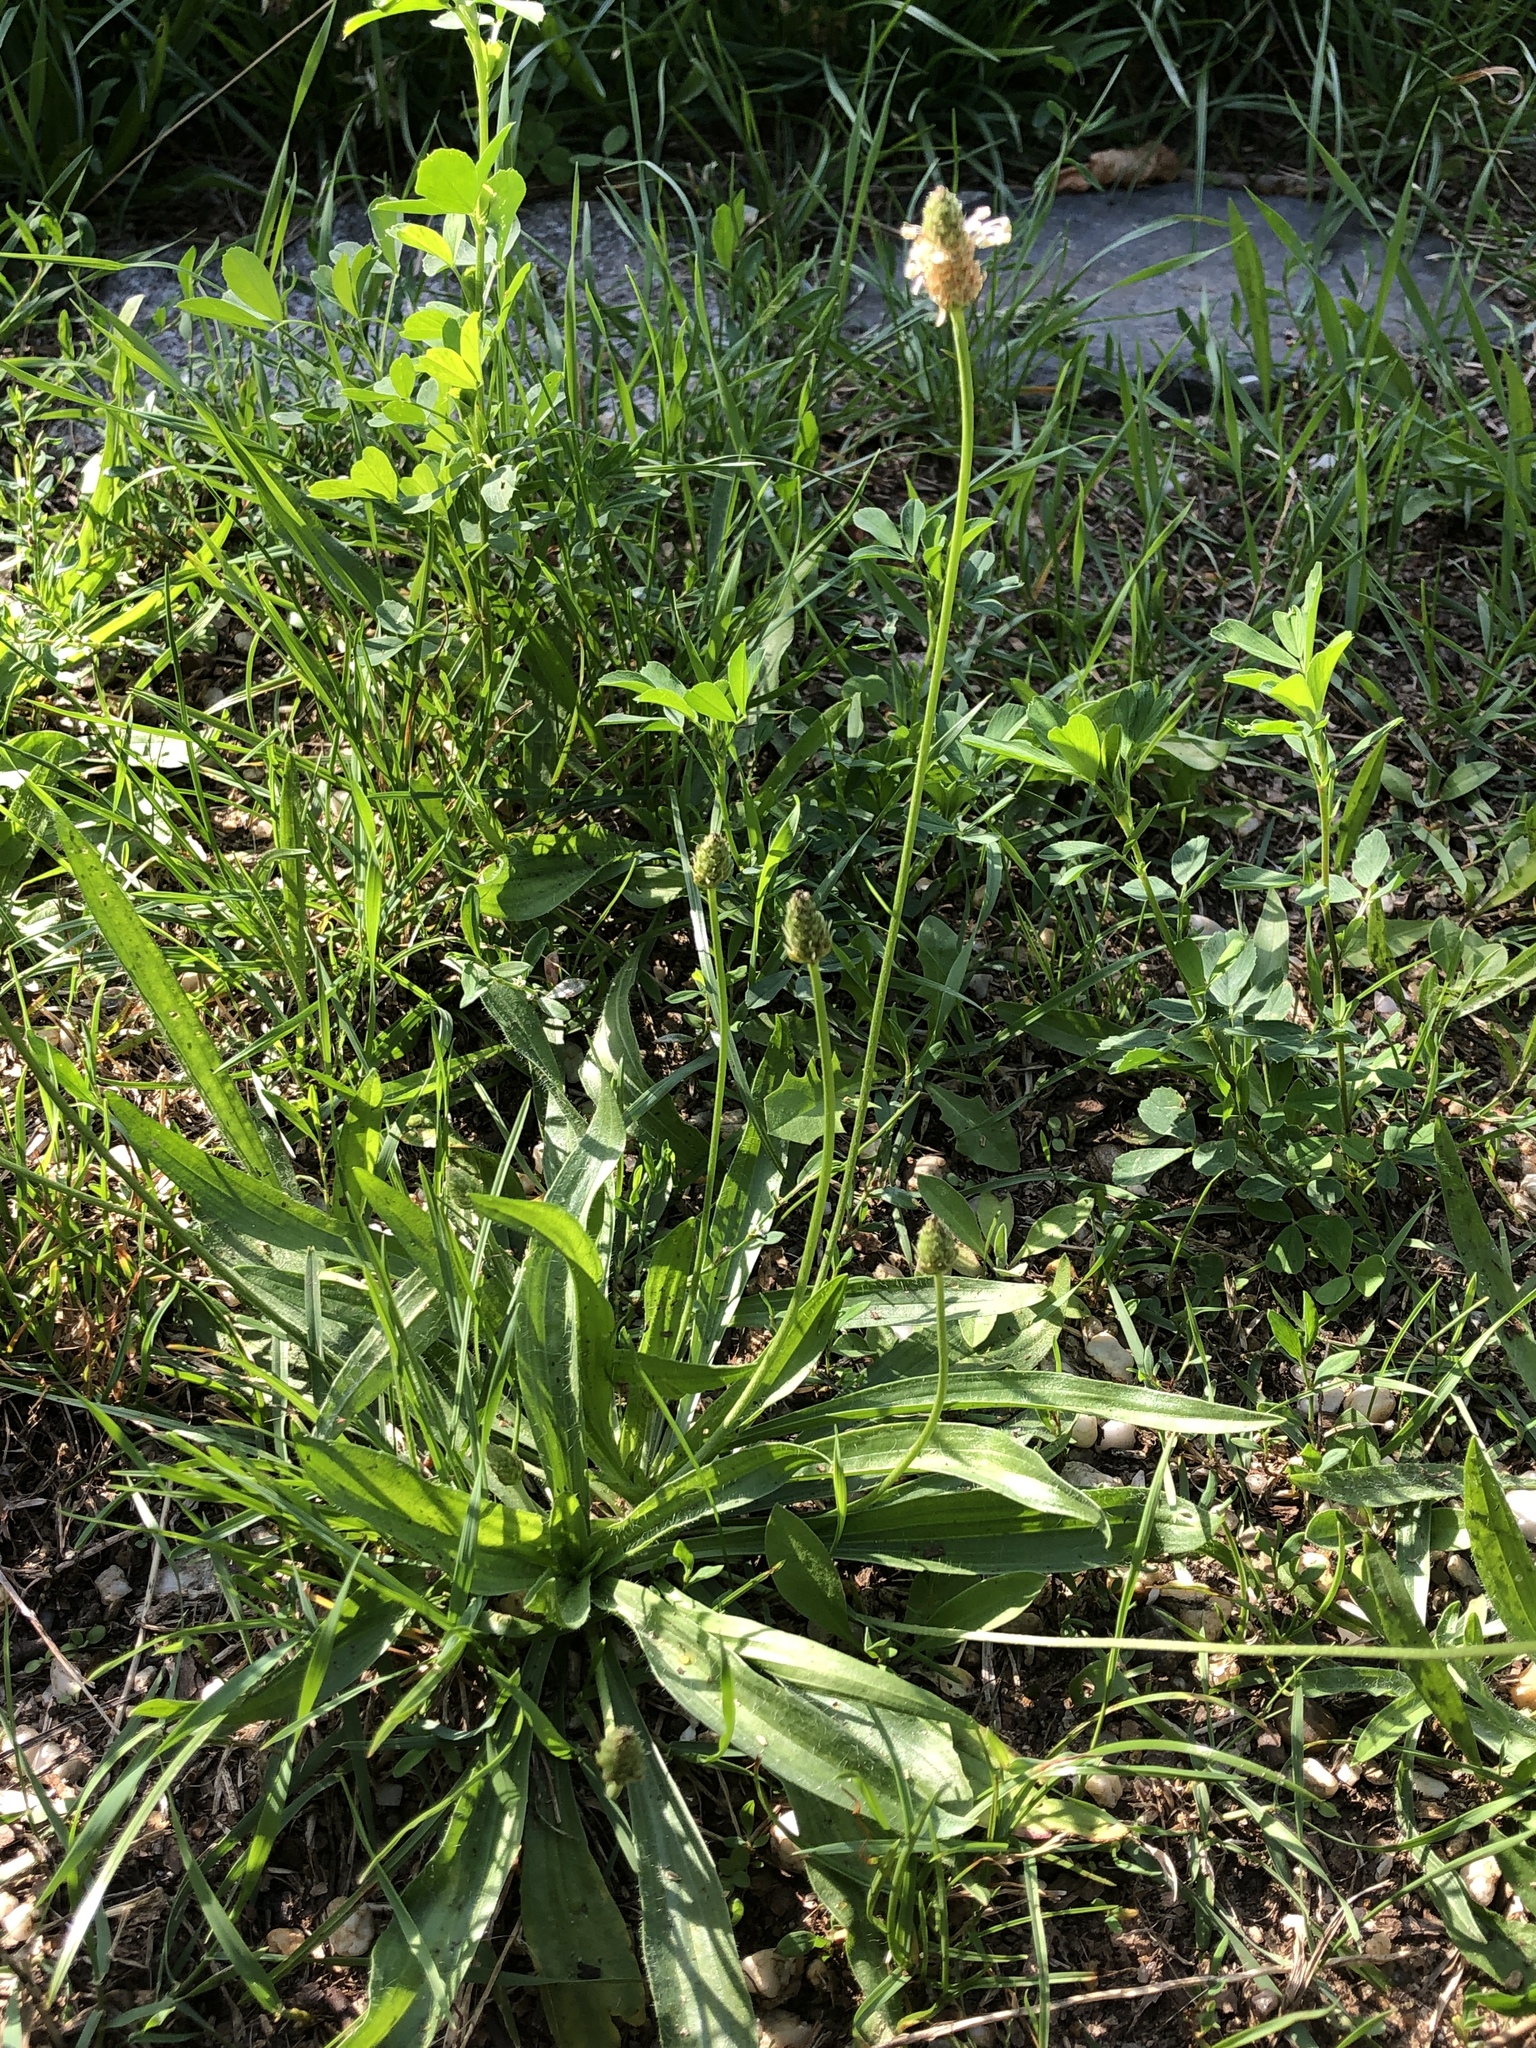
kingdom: Plantae
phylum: Tracheophyta
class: Magnoliopsida
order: Lamiales
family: Plantaginaceae
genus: Plantago
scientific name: Plantago lanceolata
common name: Ribwort plantain
